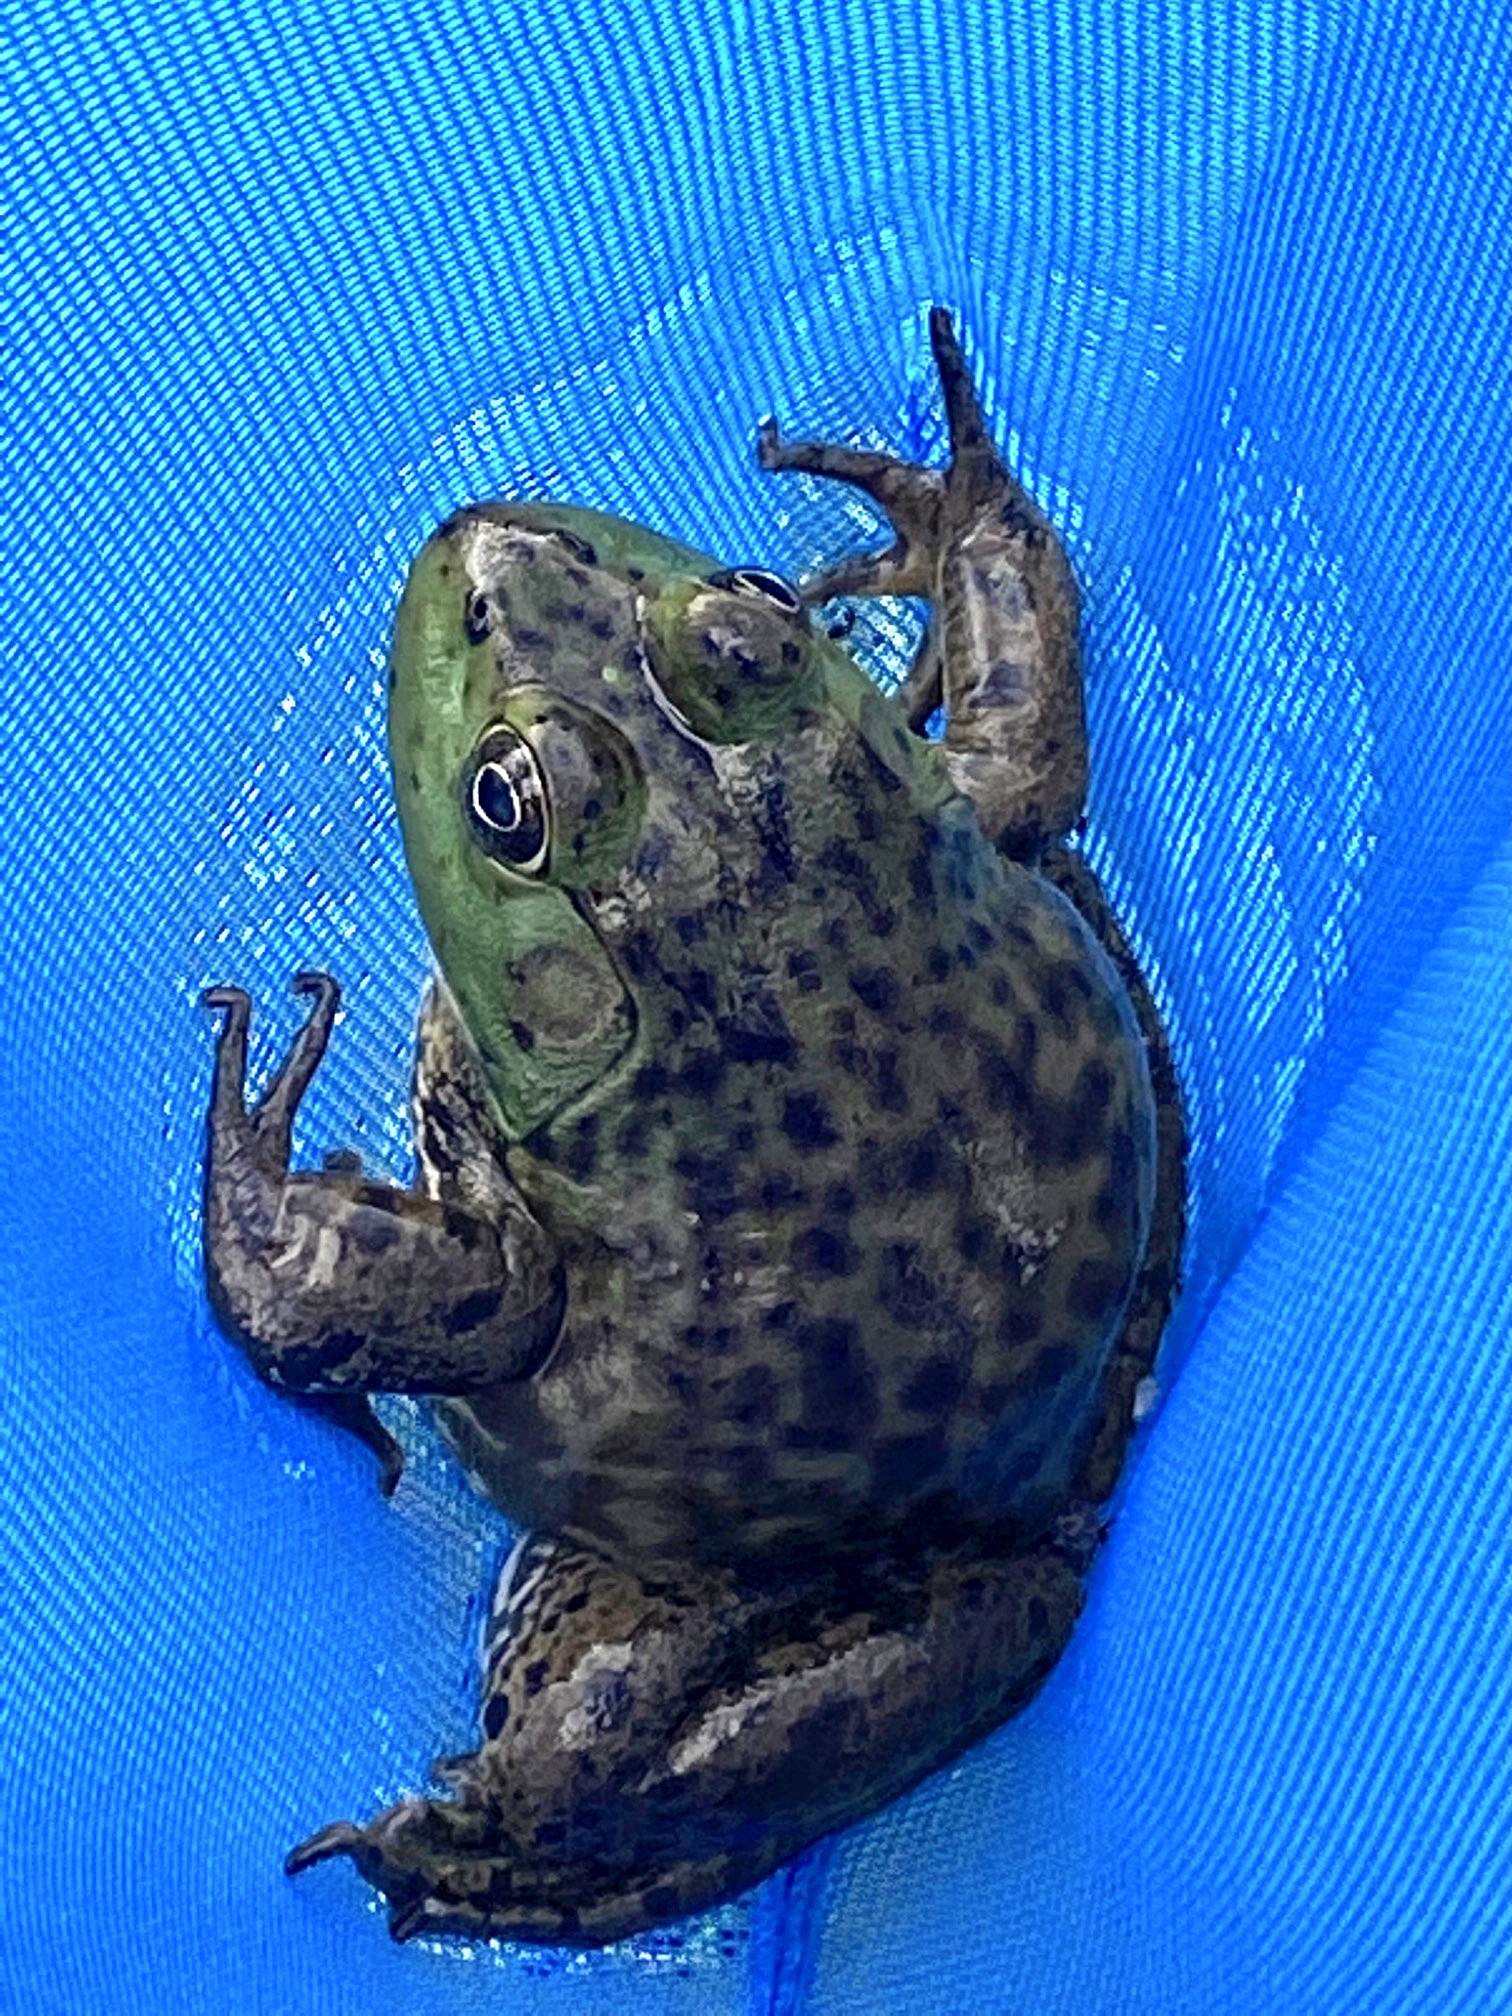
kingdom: Animalia
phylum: Chordata
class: Amphibia
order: Anura
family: Ranidae
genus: Lithobates
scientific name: Lithobates catesbeianus
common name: American bullfrog
